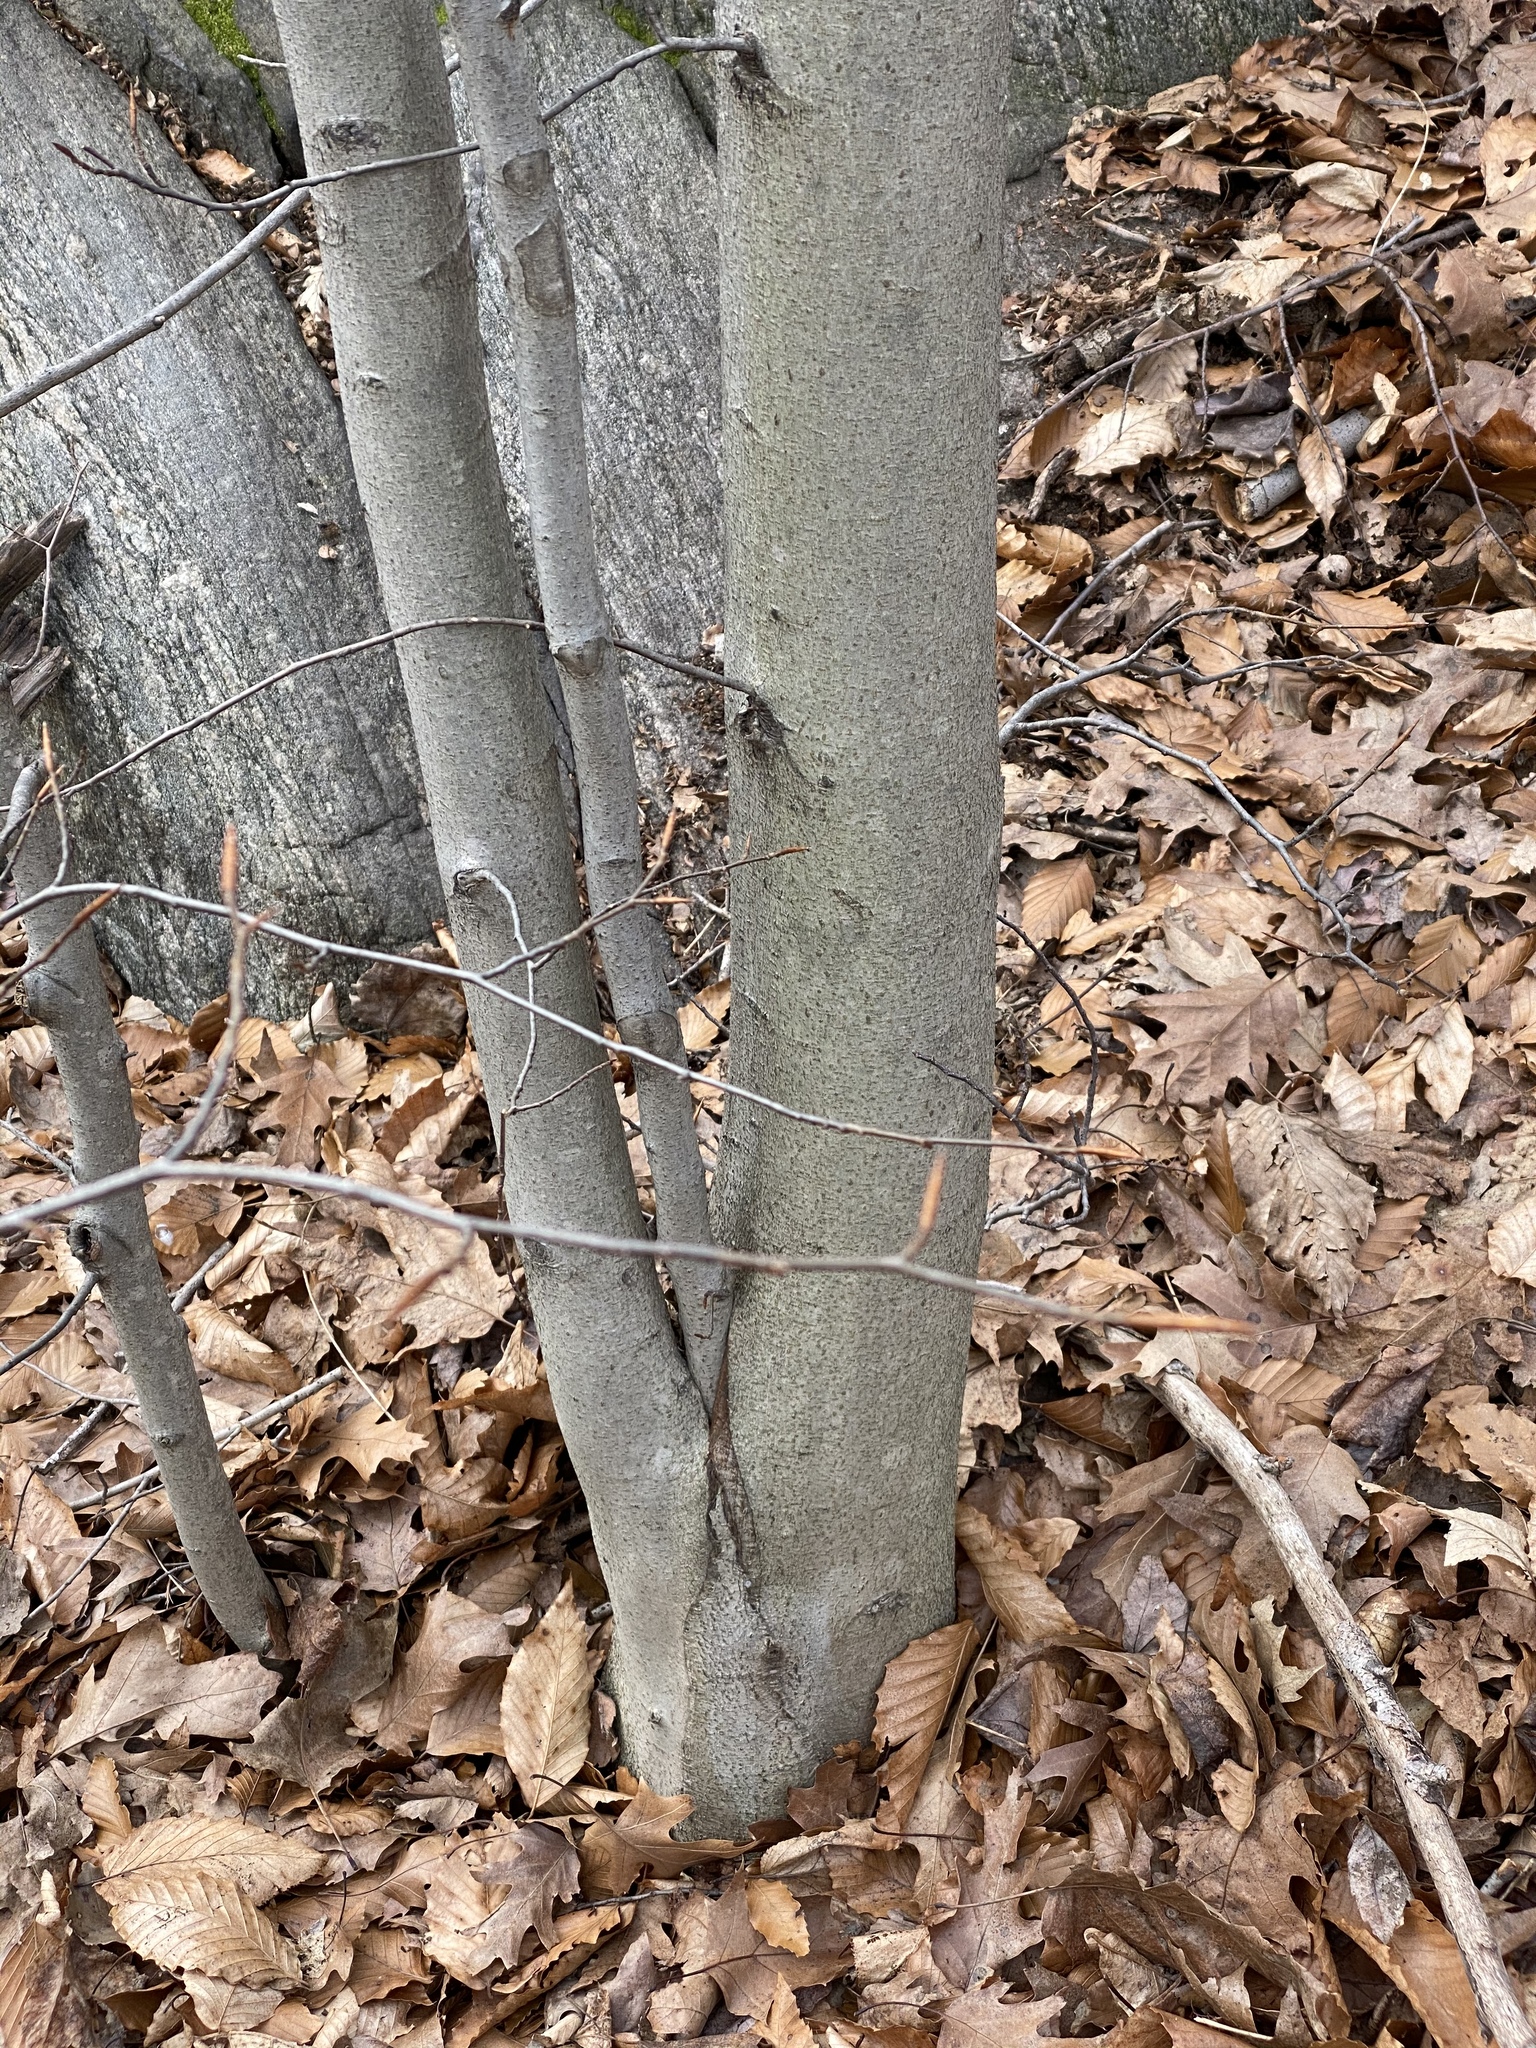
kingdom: Plantae
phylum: Tracheophyta
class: Magnoliopsida
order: Fagales
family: Fagaceae
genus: Fagus
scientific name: Fagus grandifolia
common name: American beech
